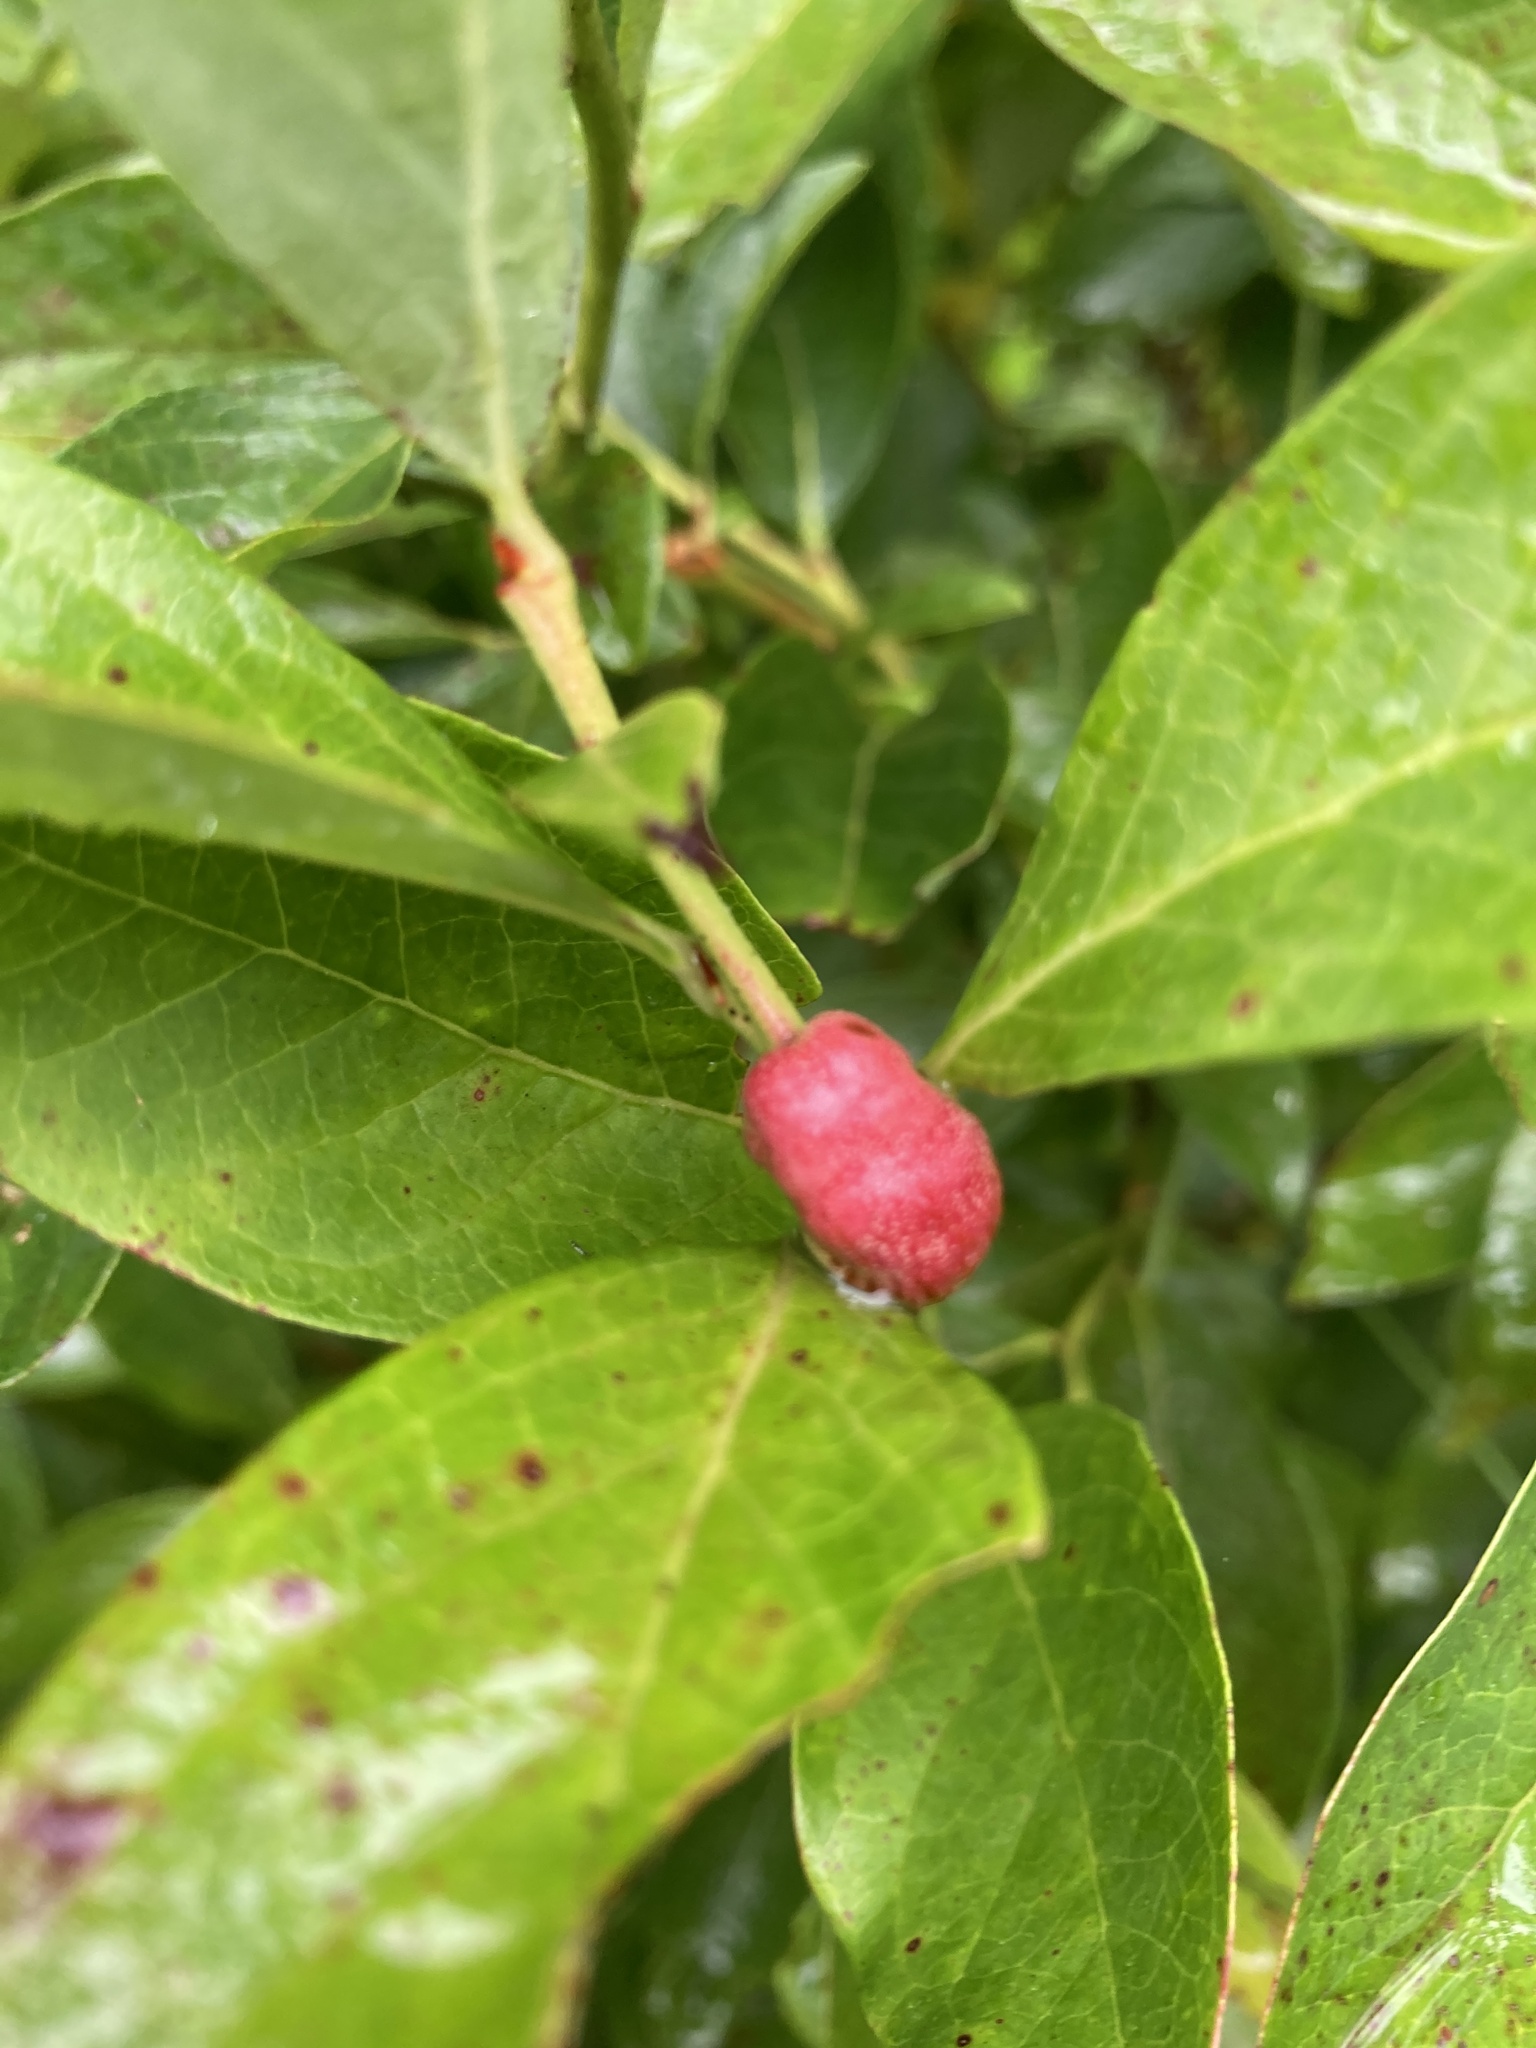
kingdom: Animalia
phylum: Arthropoda
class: Insecta
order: Hymenoptera
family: Pteromalidae
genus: Hemadas
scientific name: Hemadas nubilipennis
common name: Blueberry stem gall wasp
